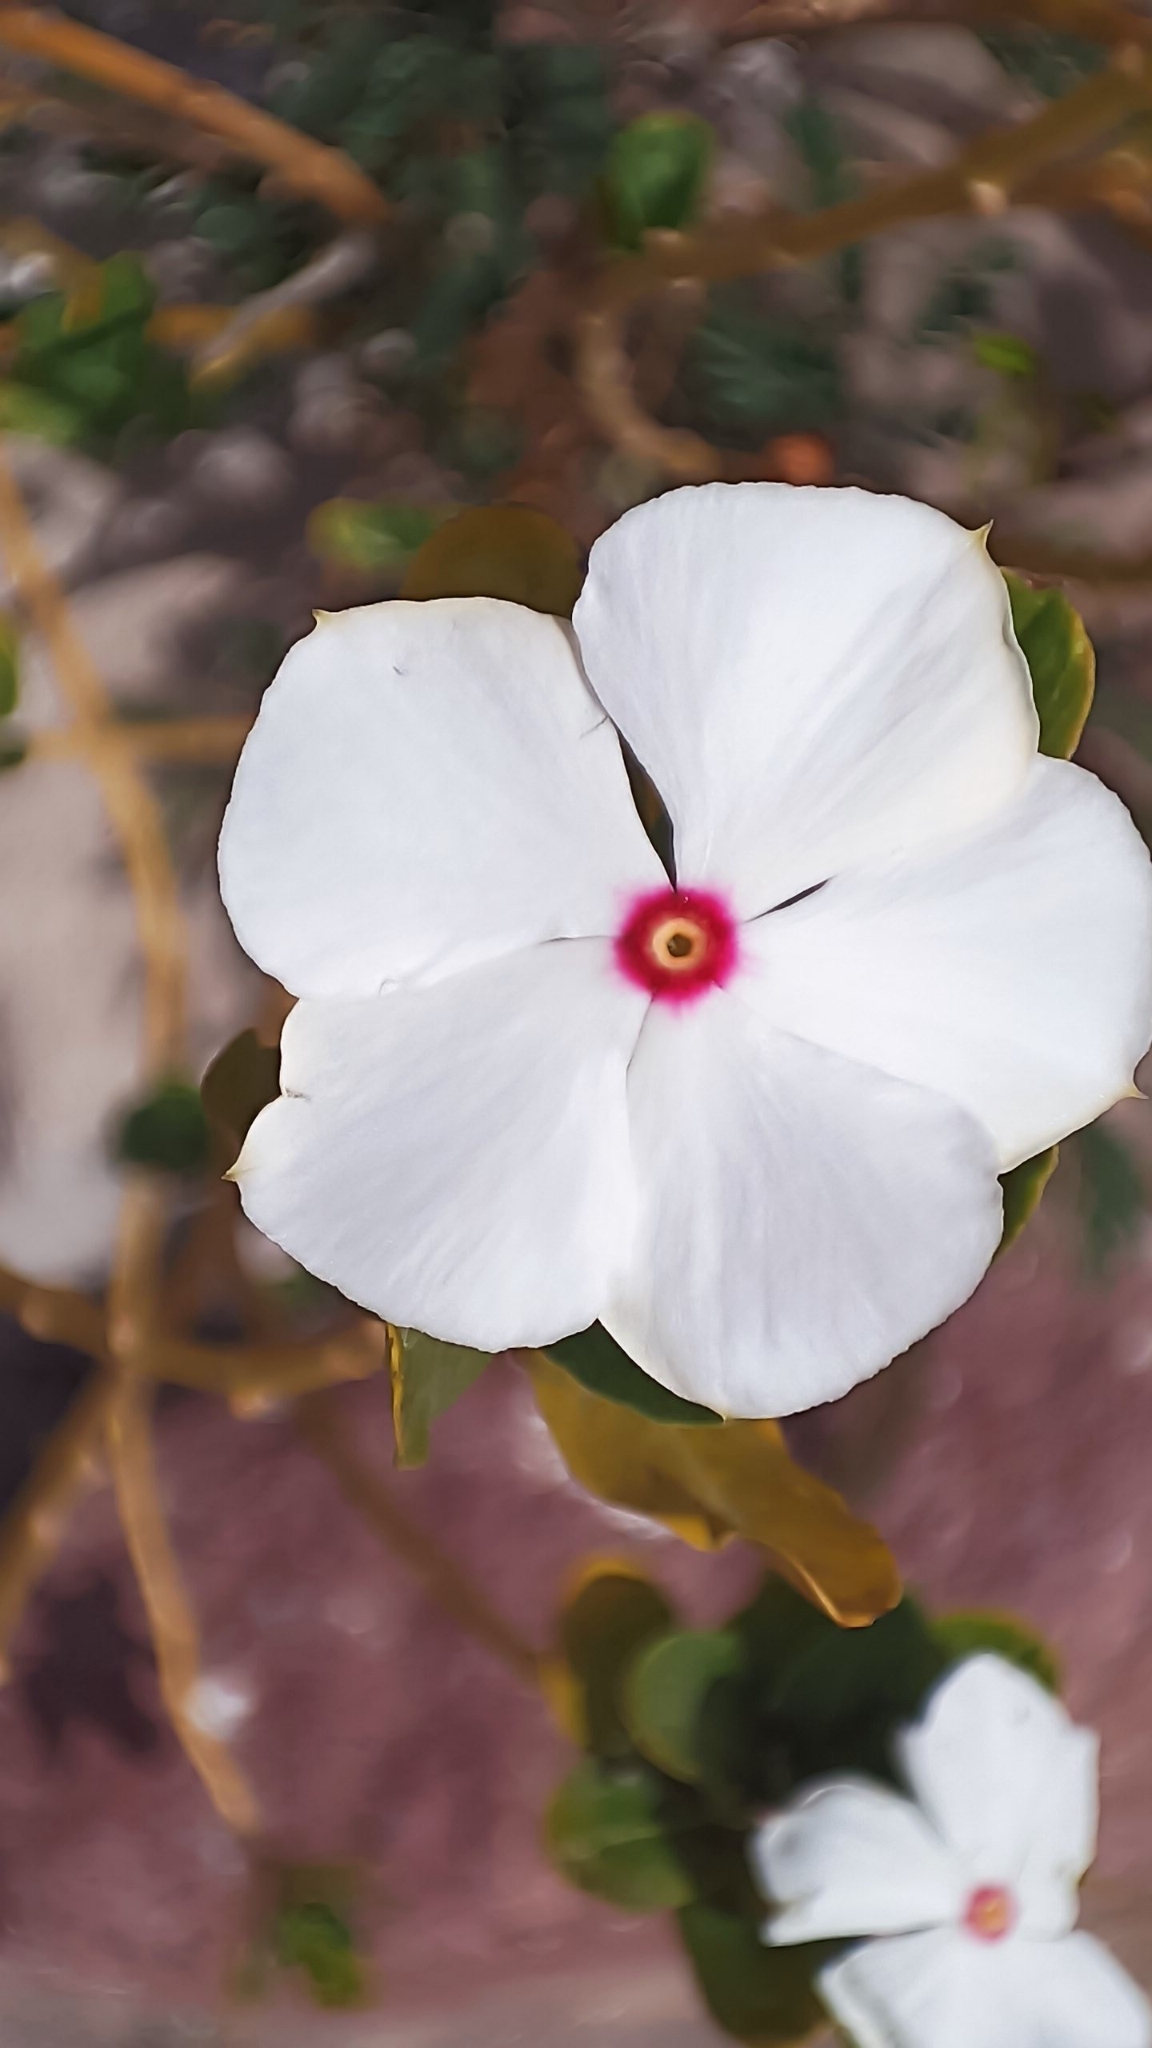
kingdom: Plantae
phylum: Tracheophyta
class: Magnoliopsida
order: Gentianales
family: Apocynaceae
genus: Catharanthus
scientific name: Catharanthus roseus
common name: Madagascar periwinkle
